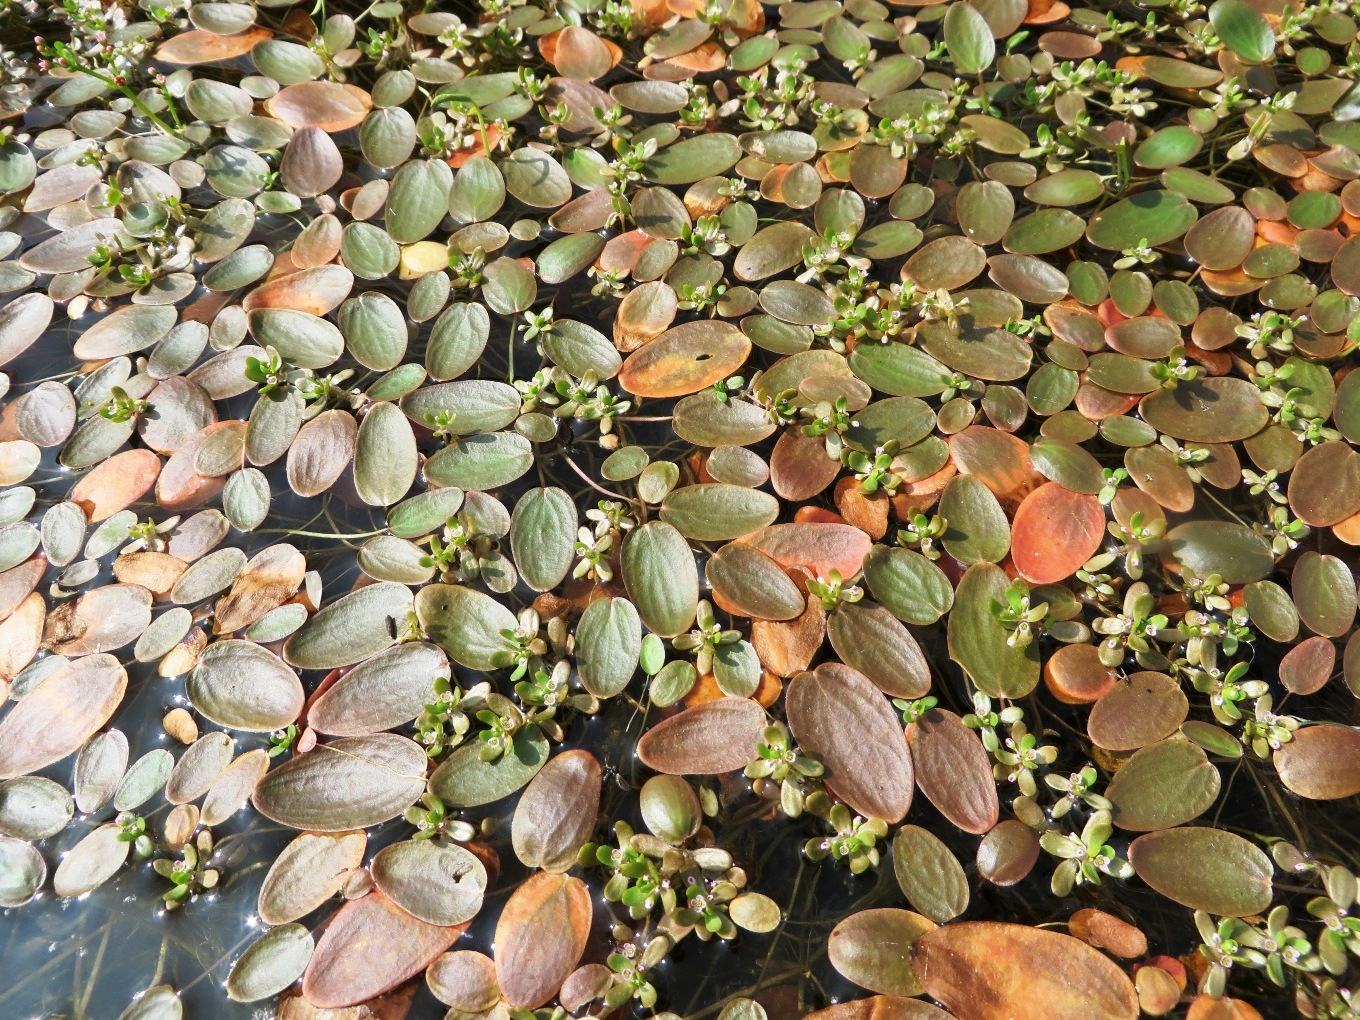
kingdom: Plantae
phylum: Tracheophyta
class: Magnoliopsida
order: Lamiales
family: Scrophulariaceae
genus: Limosella
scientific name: Limosella grandiflora
